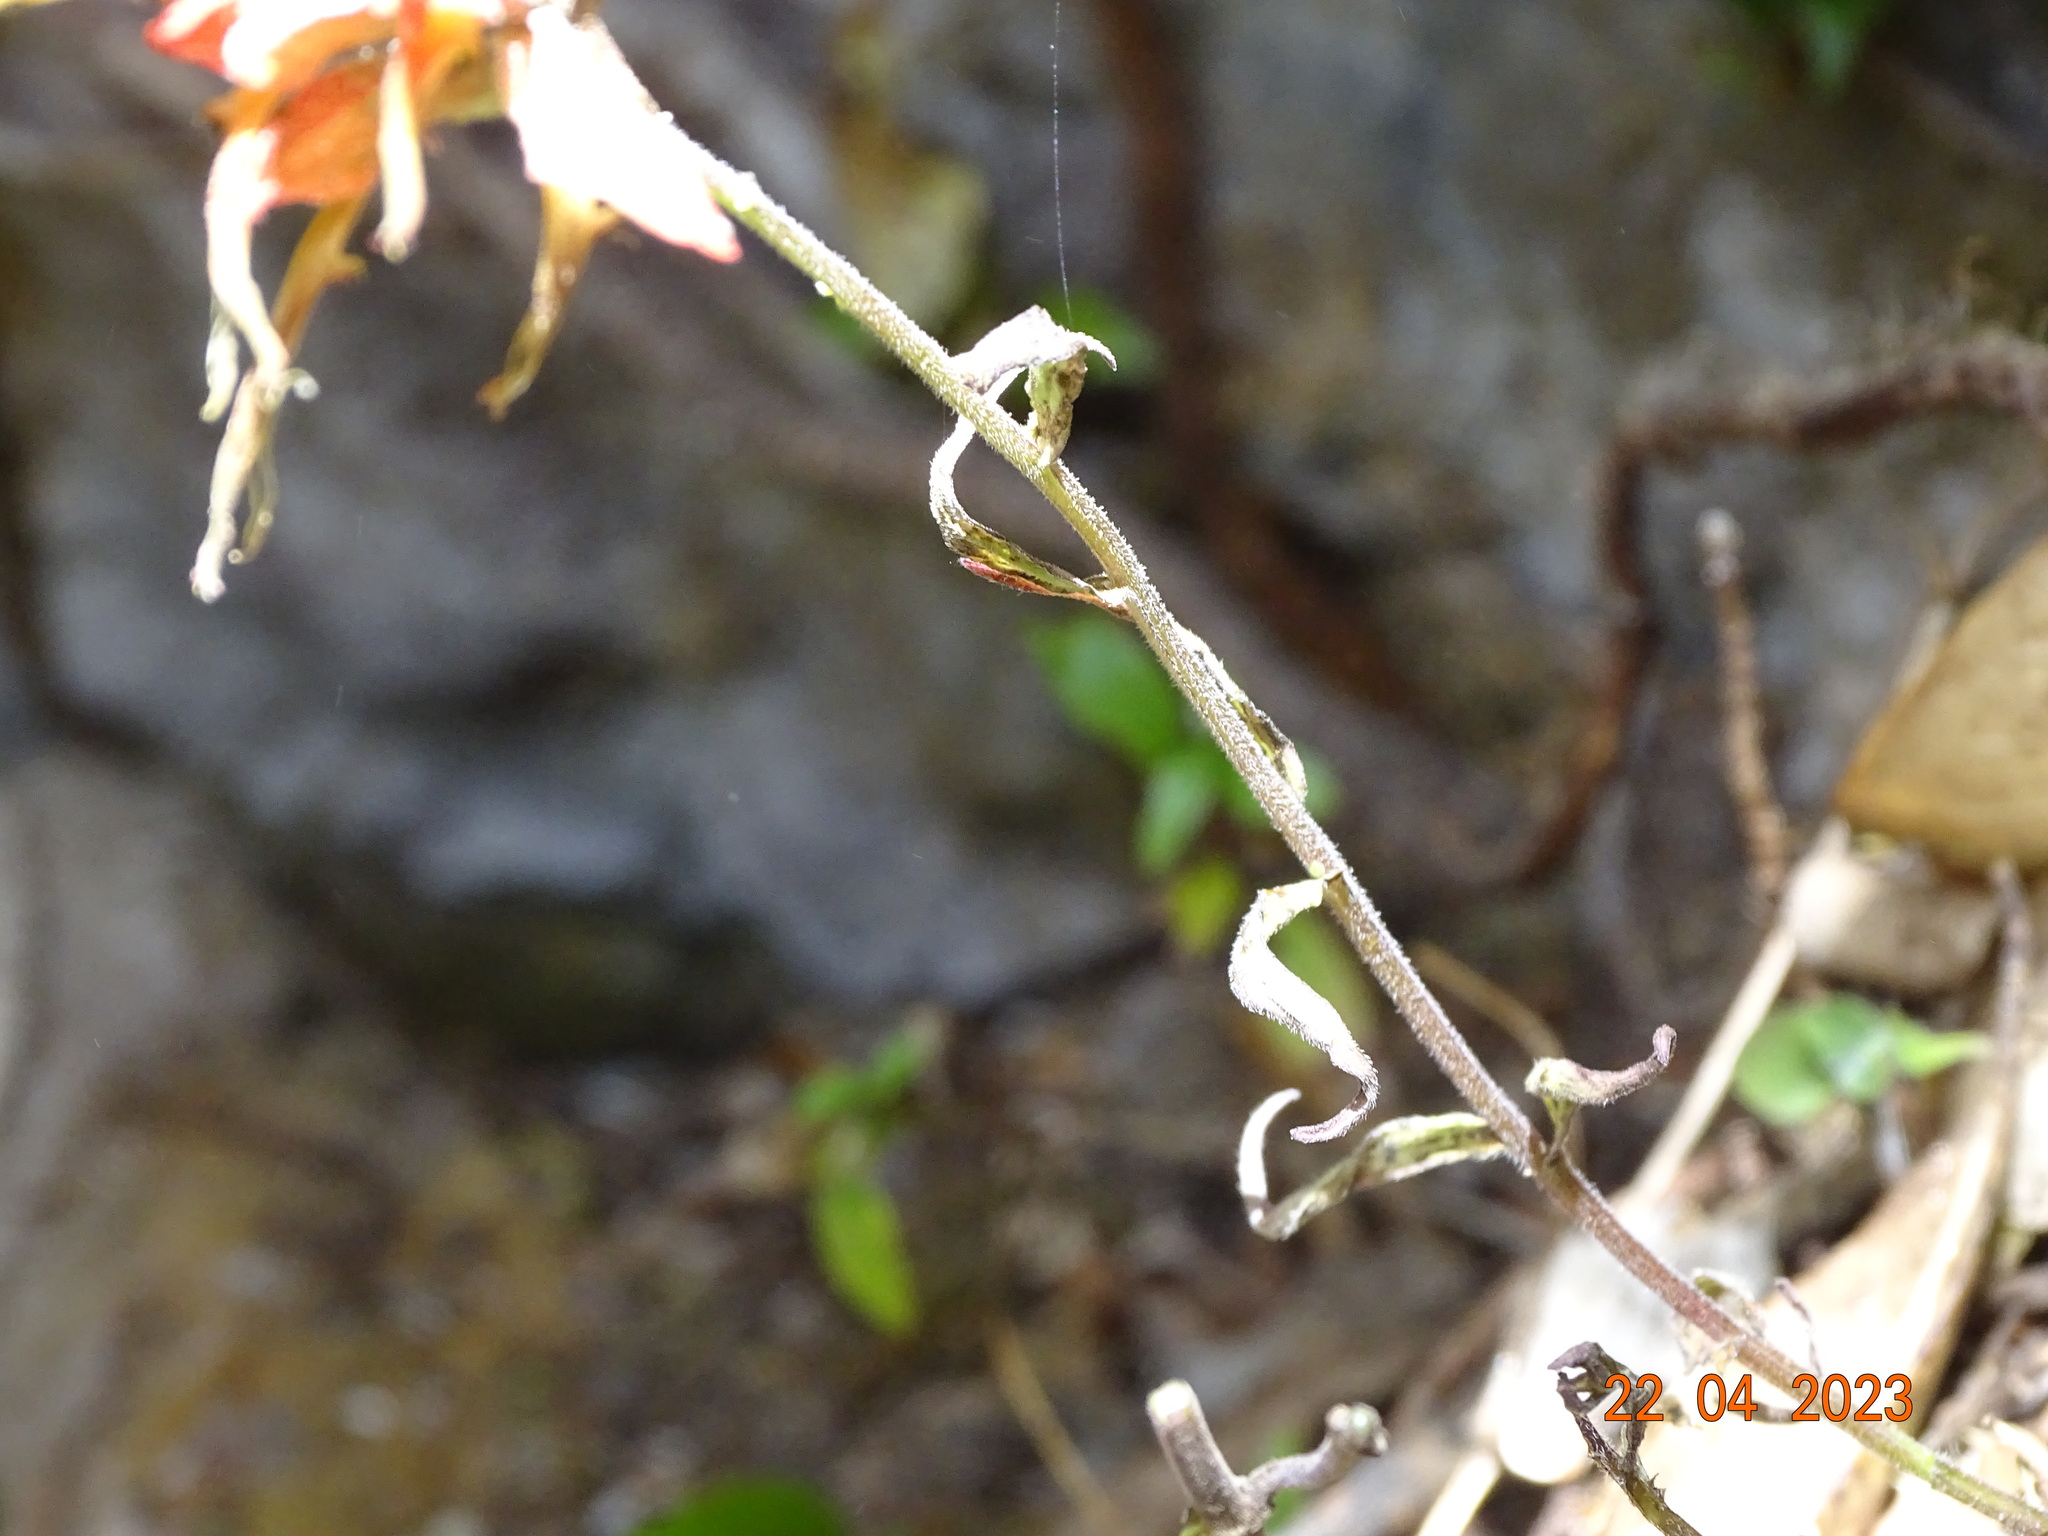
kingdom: Plantae
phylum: Tracheophyta
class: Magnoliopsida
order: Lamiales
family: Orobanchaceae
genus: Castilleja
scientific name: Castilleja tenuiflora
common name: Santa catalina indian paintbrush
